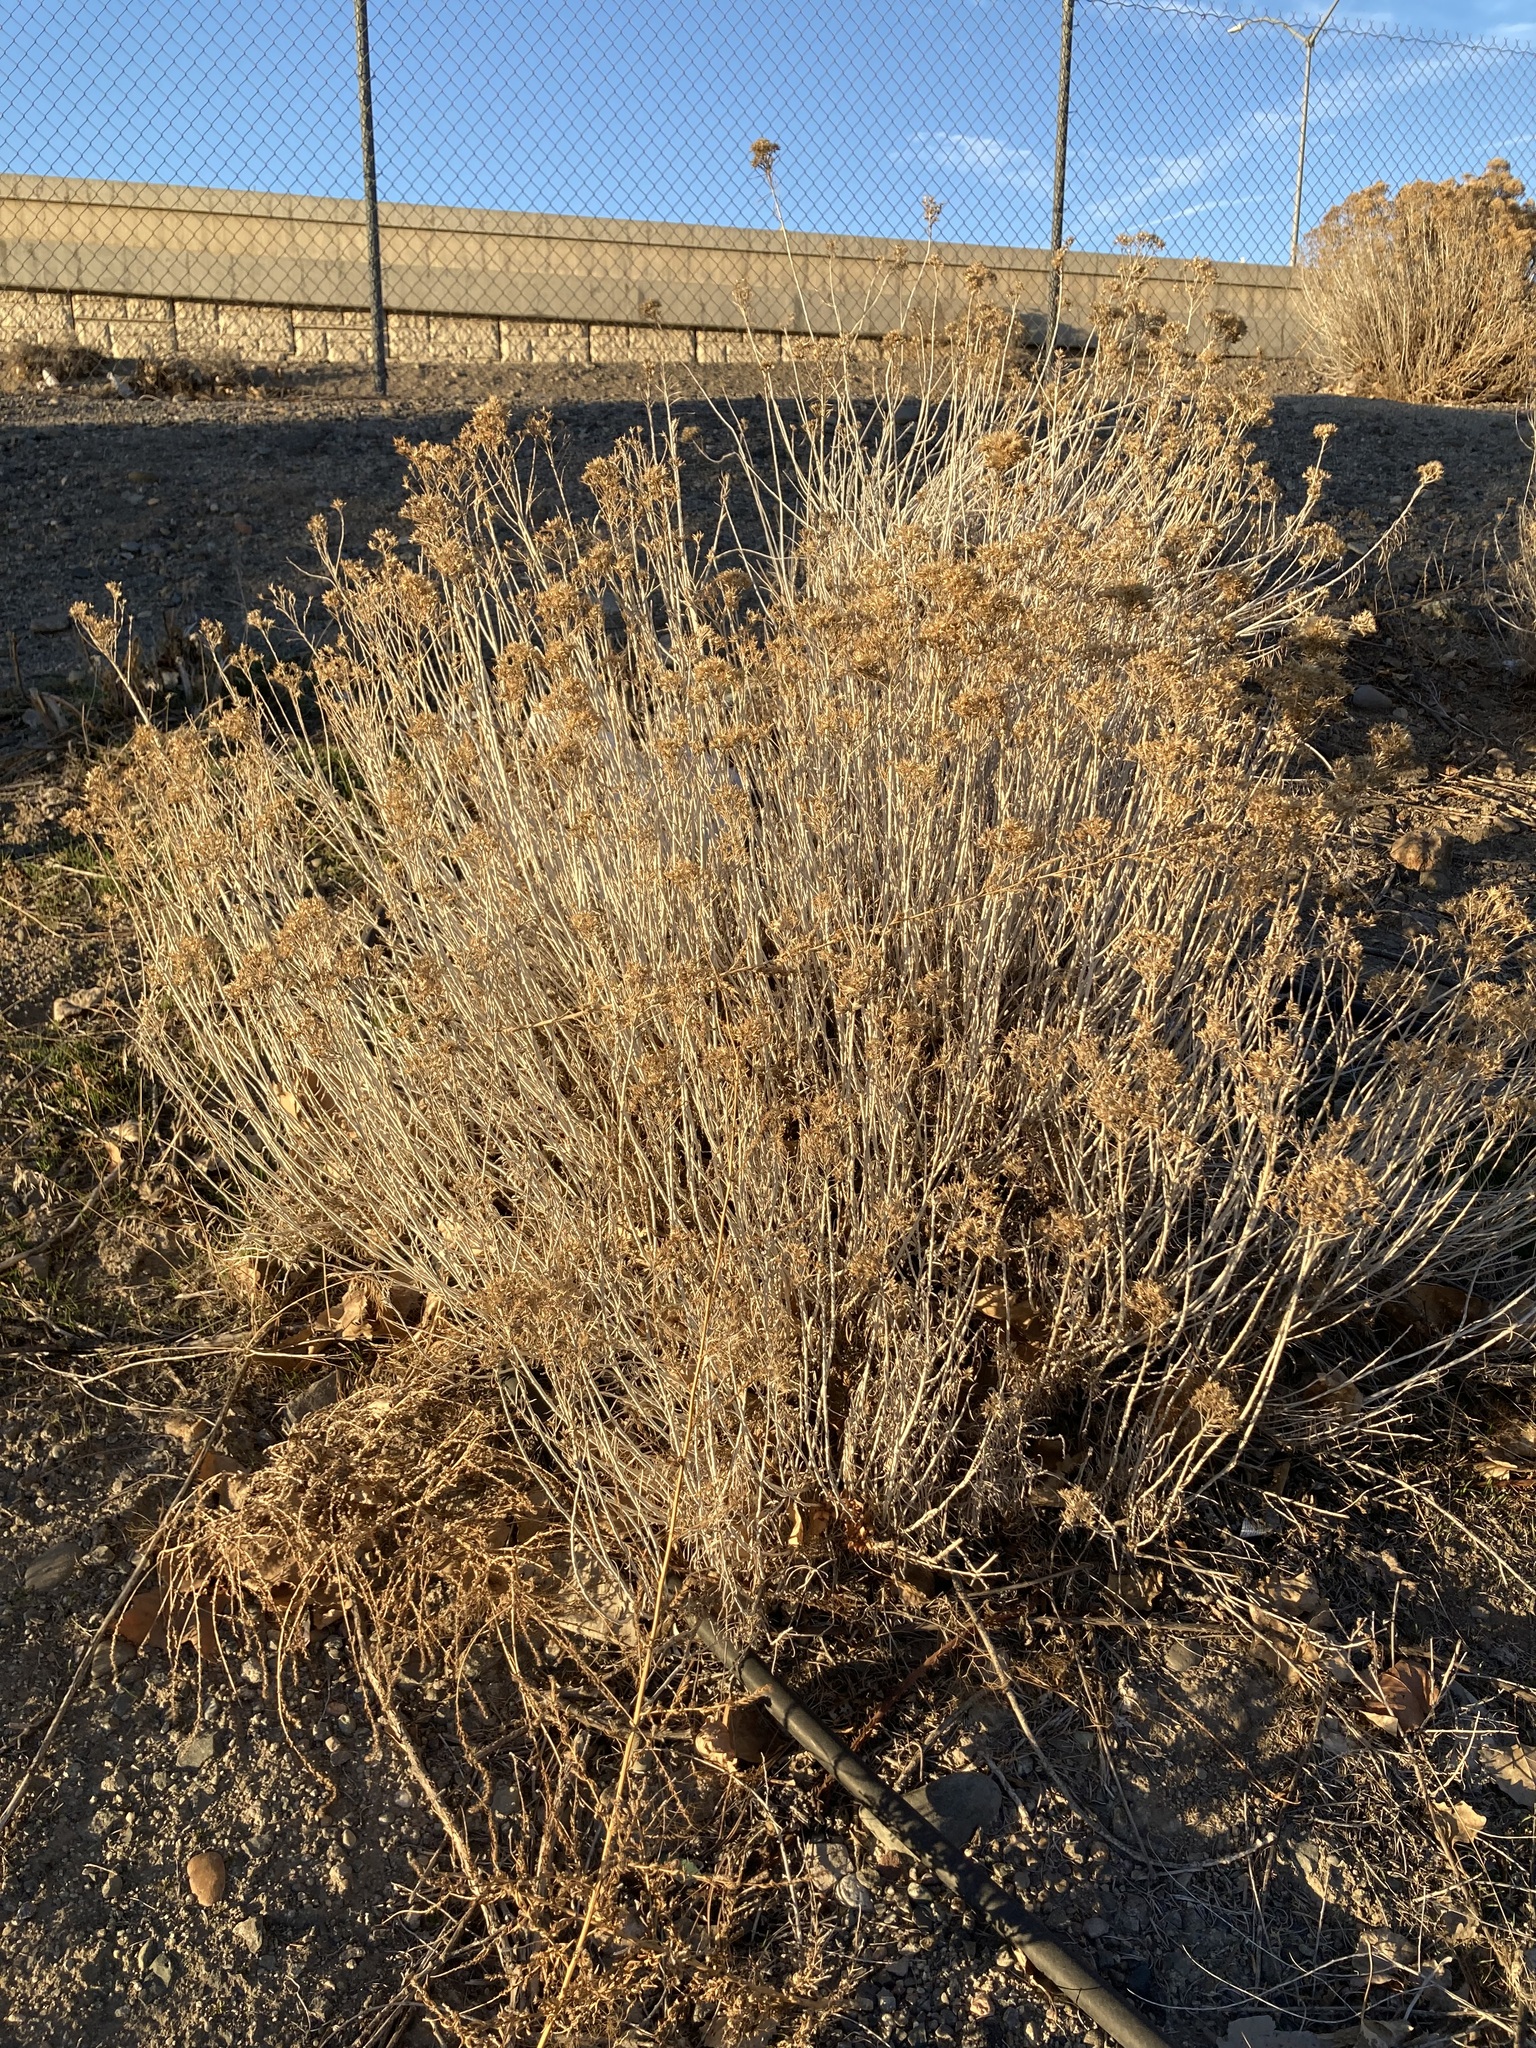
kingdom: Plantae
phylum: Tracheophyta
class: Magnoliopsida
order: Asterales
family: Asteraceae
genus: Ericameria
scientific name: Ericameria nauseosa
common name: Rubber rabbitbrush
